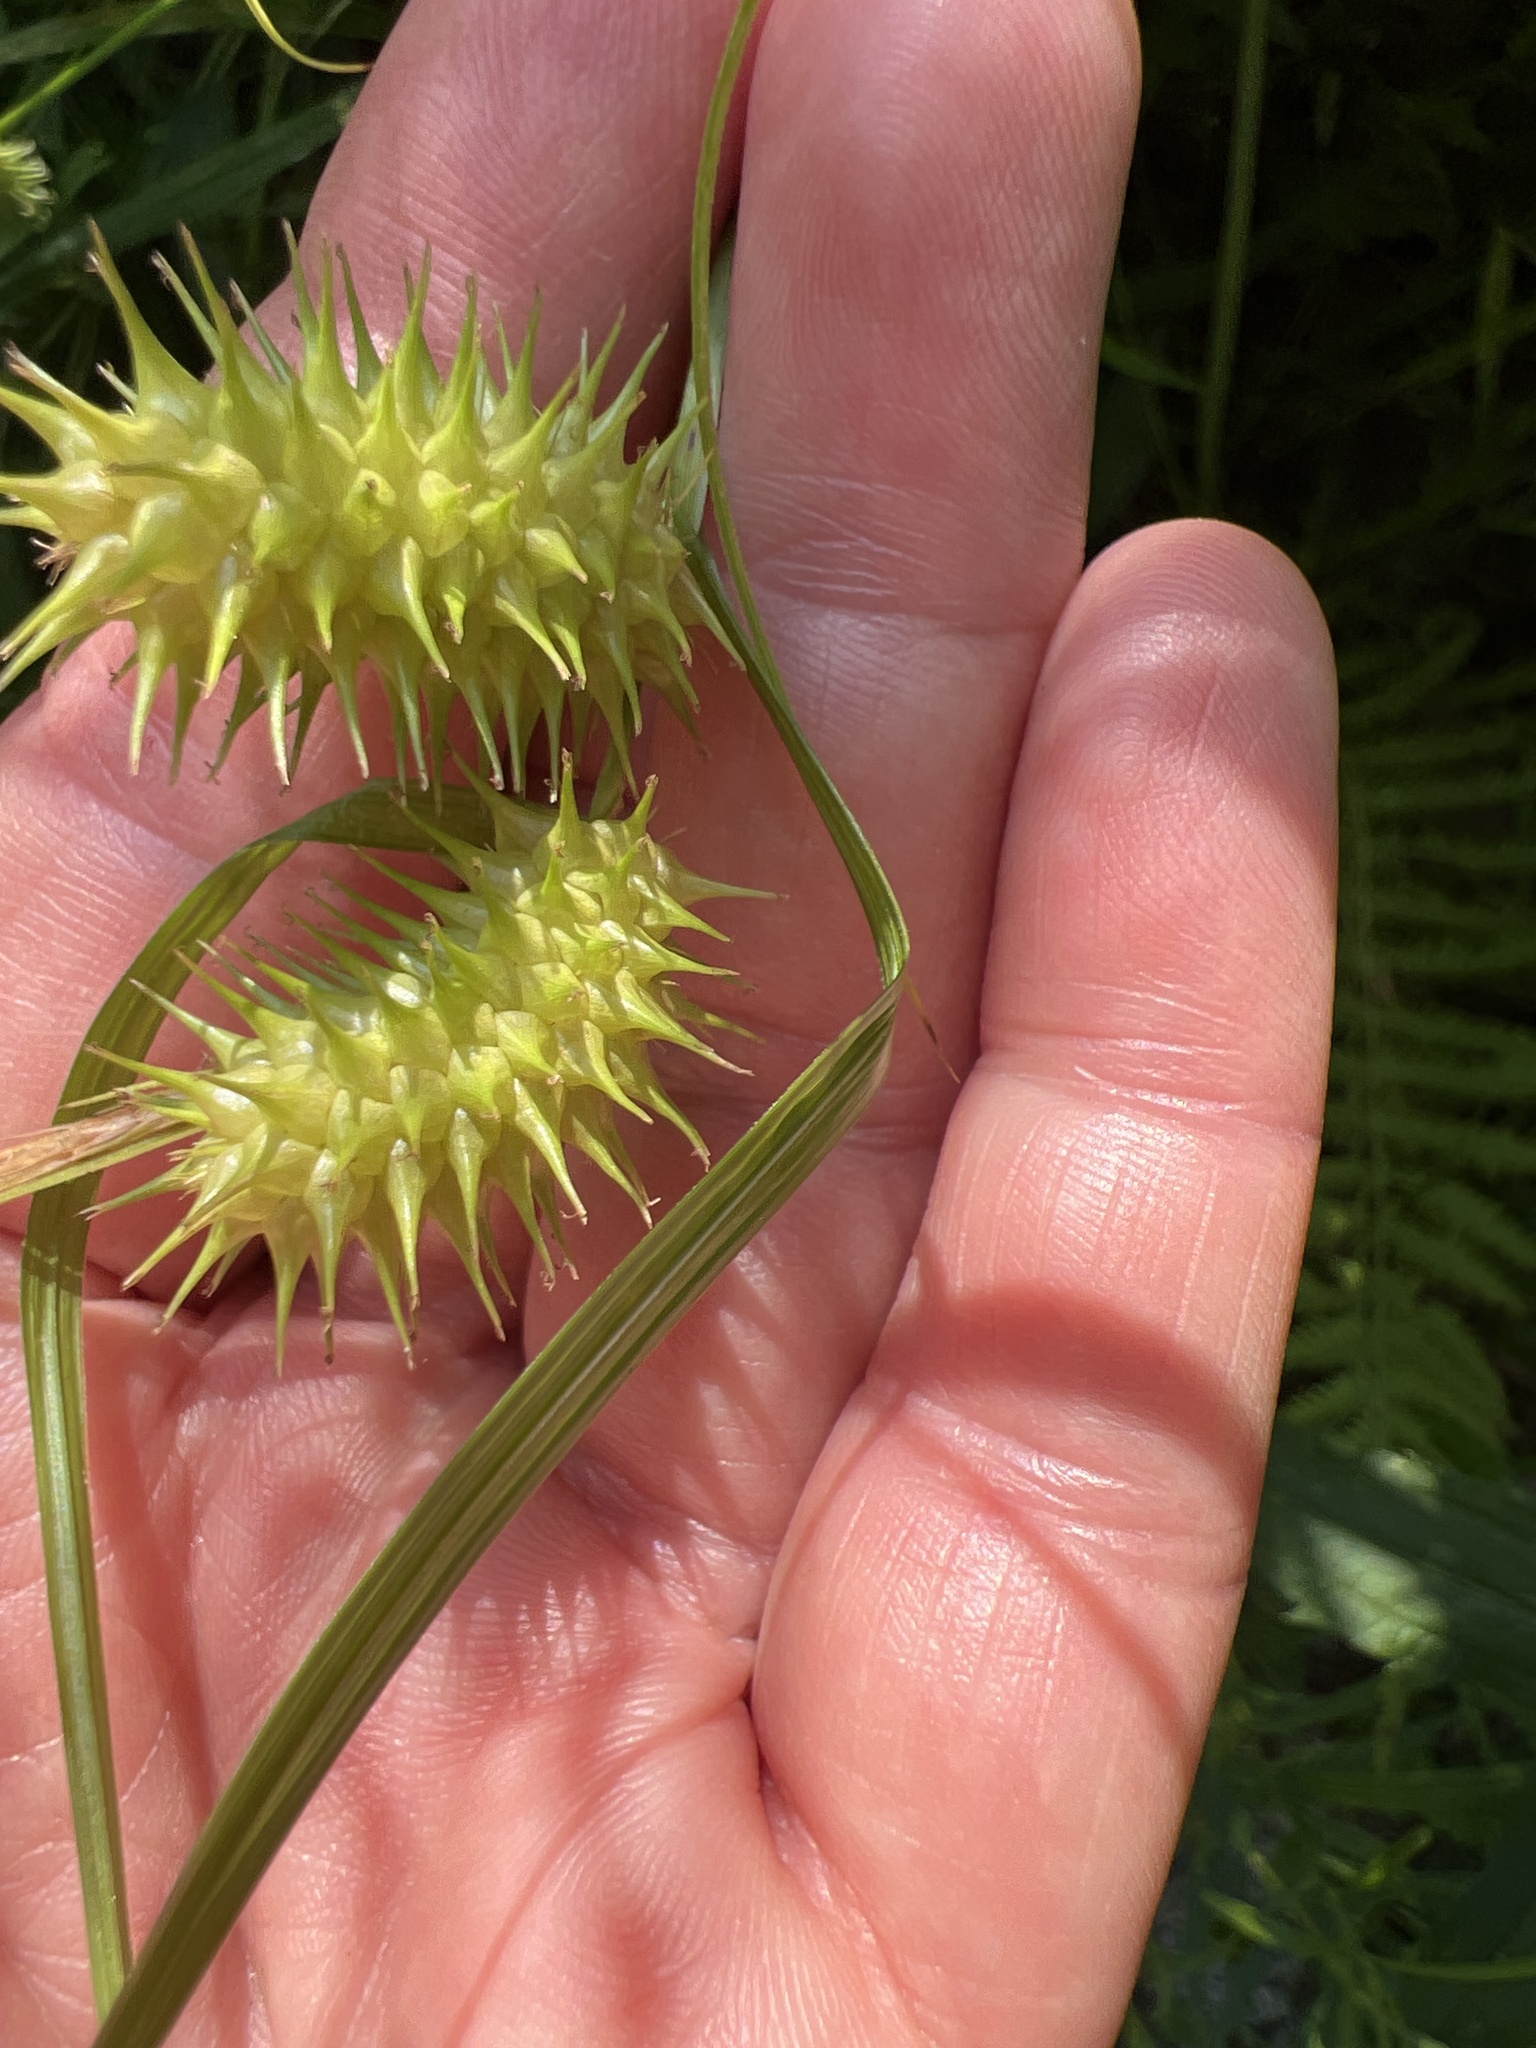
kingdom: Plantae
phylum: Tracheophyta
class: Liliopsida
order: Poales
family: Cyperaceae
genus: Carex
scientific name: Carex lurida
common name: Sallow sedge
